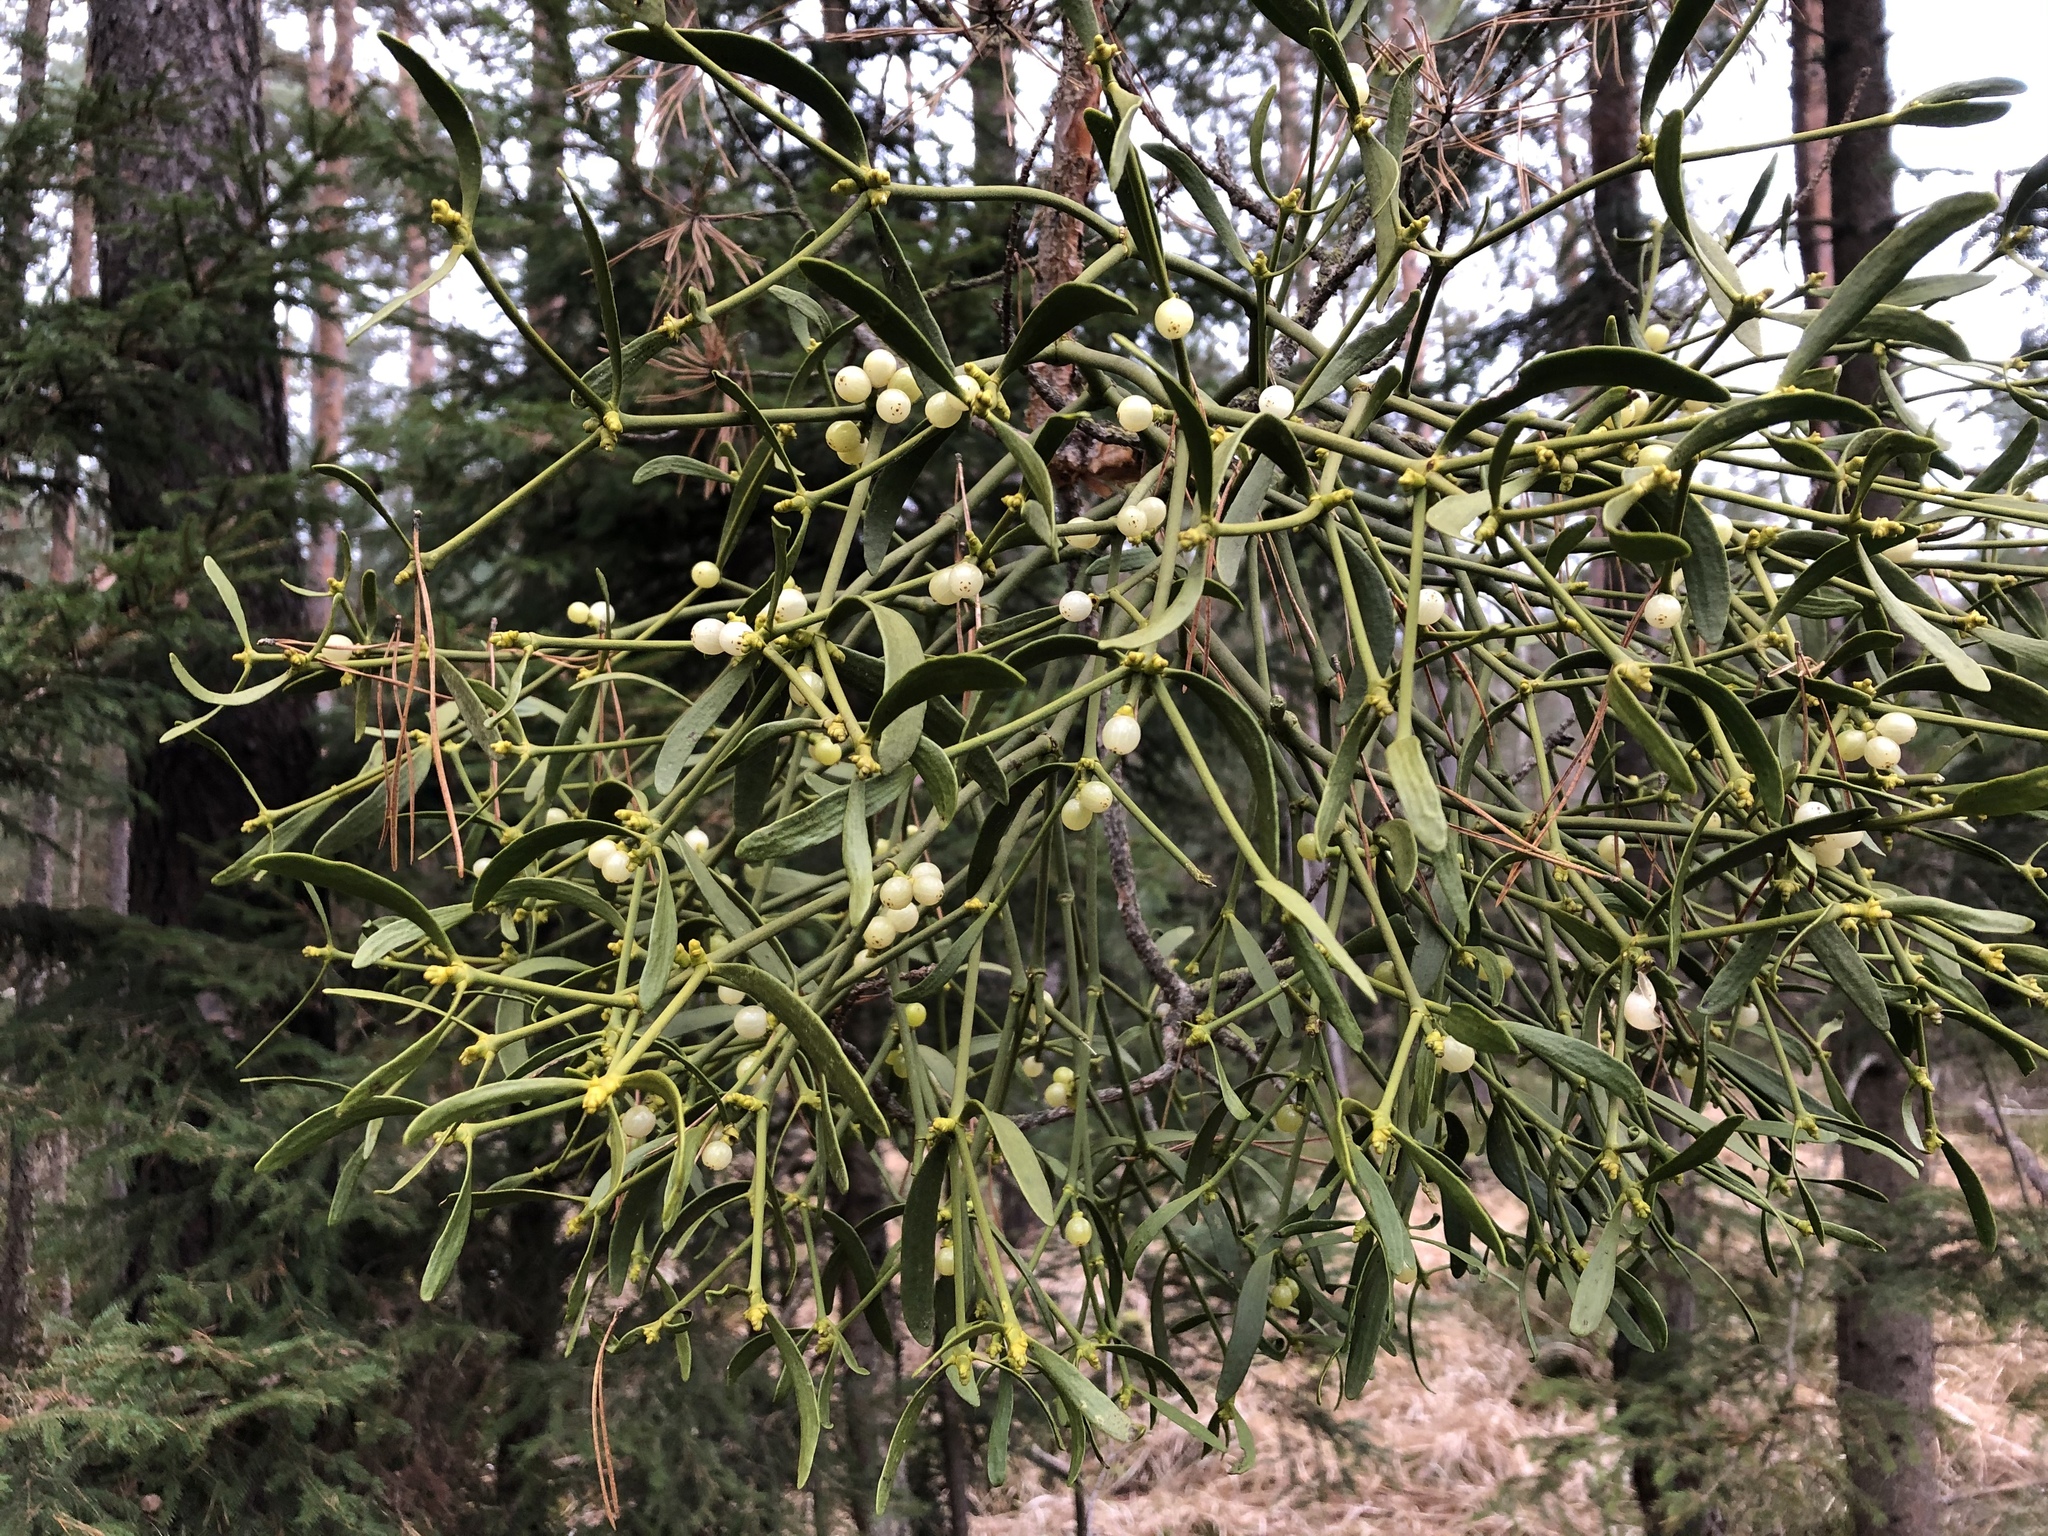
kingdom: Plantae
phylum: Tracheophyta
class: Magnoliopsida
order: Santalales
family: Viscaceae
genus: Viscum
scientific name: Viscum laxum
